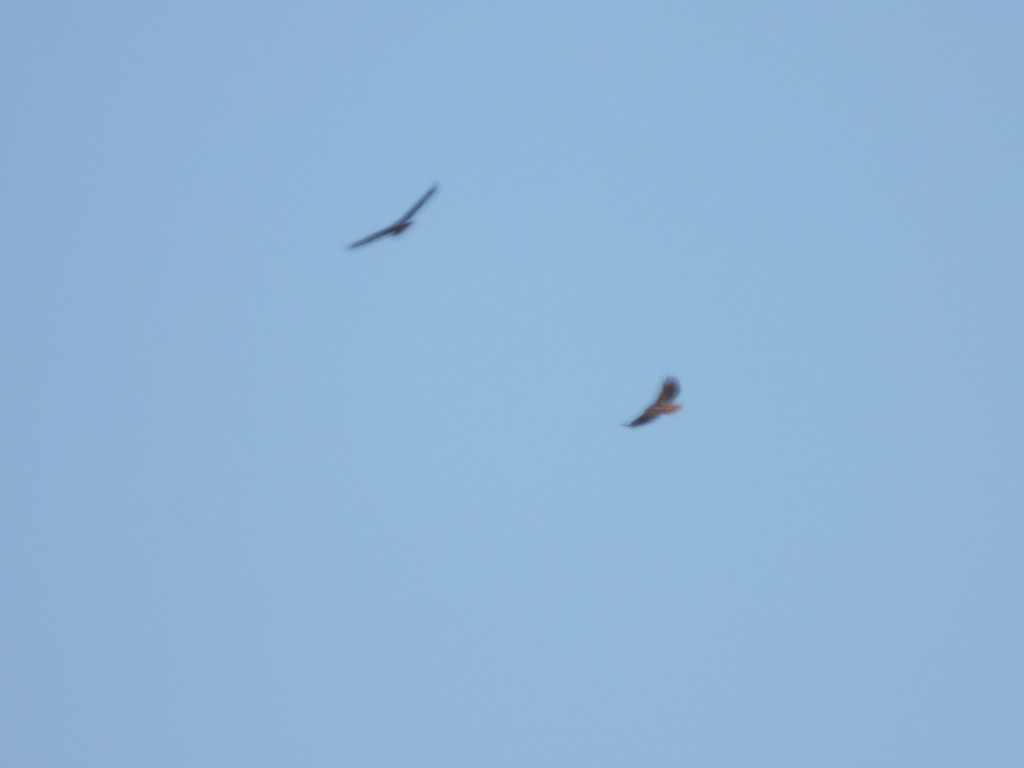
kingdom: Animalia
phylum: Chordata
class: Aves
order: Accipitriformes
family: Accipitridae
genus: Buteo
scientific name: Buteo jamaicensis
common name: Red-tailed hawk
